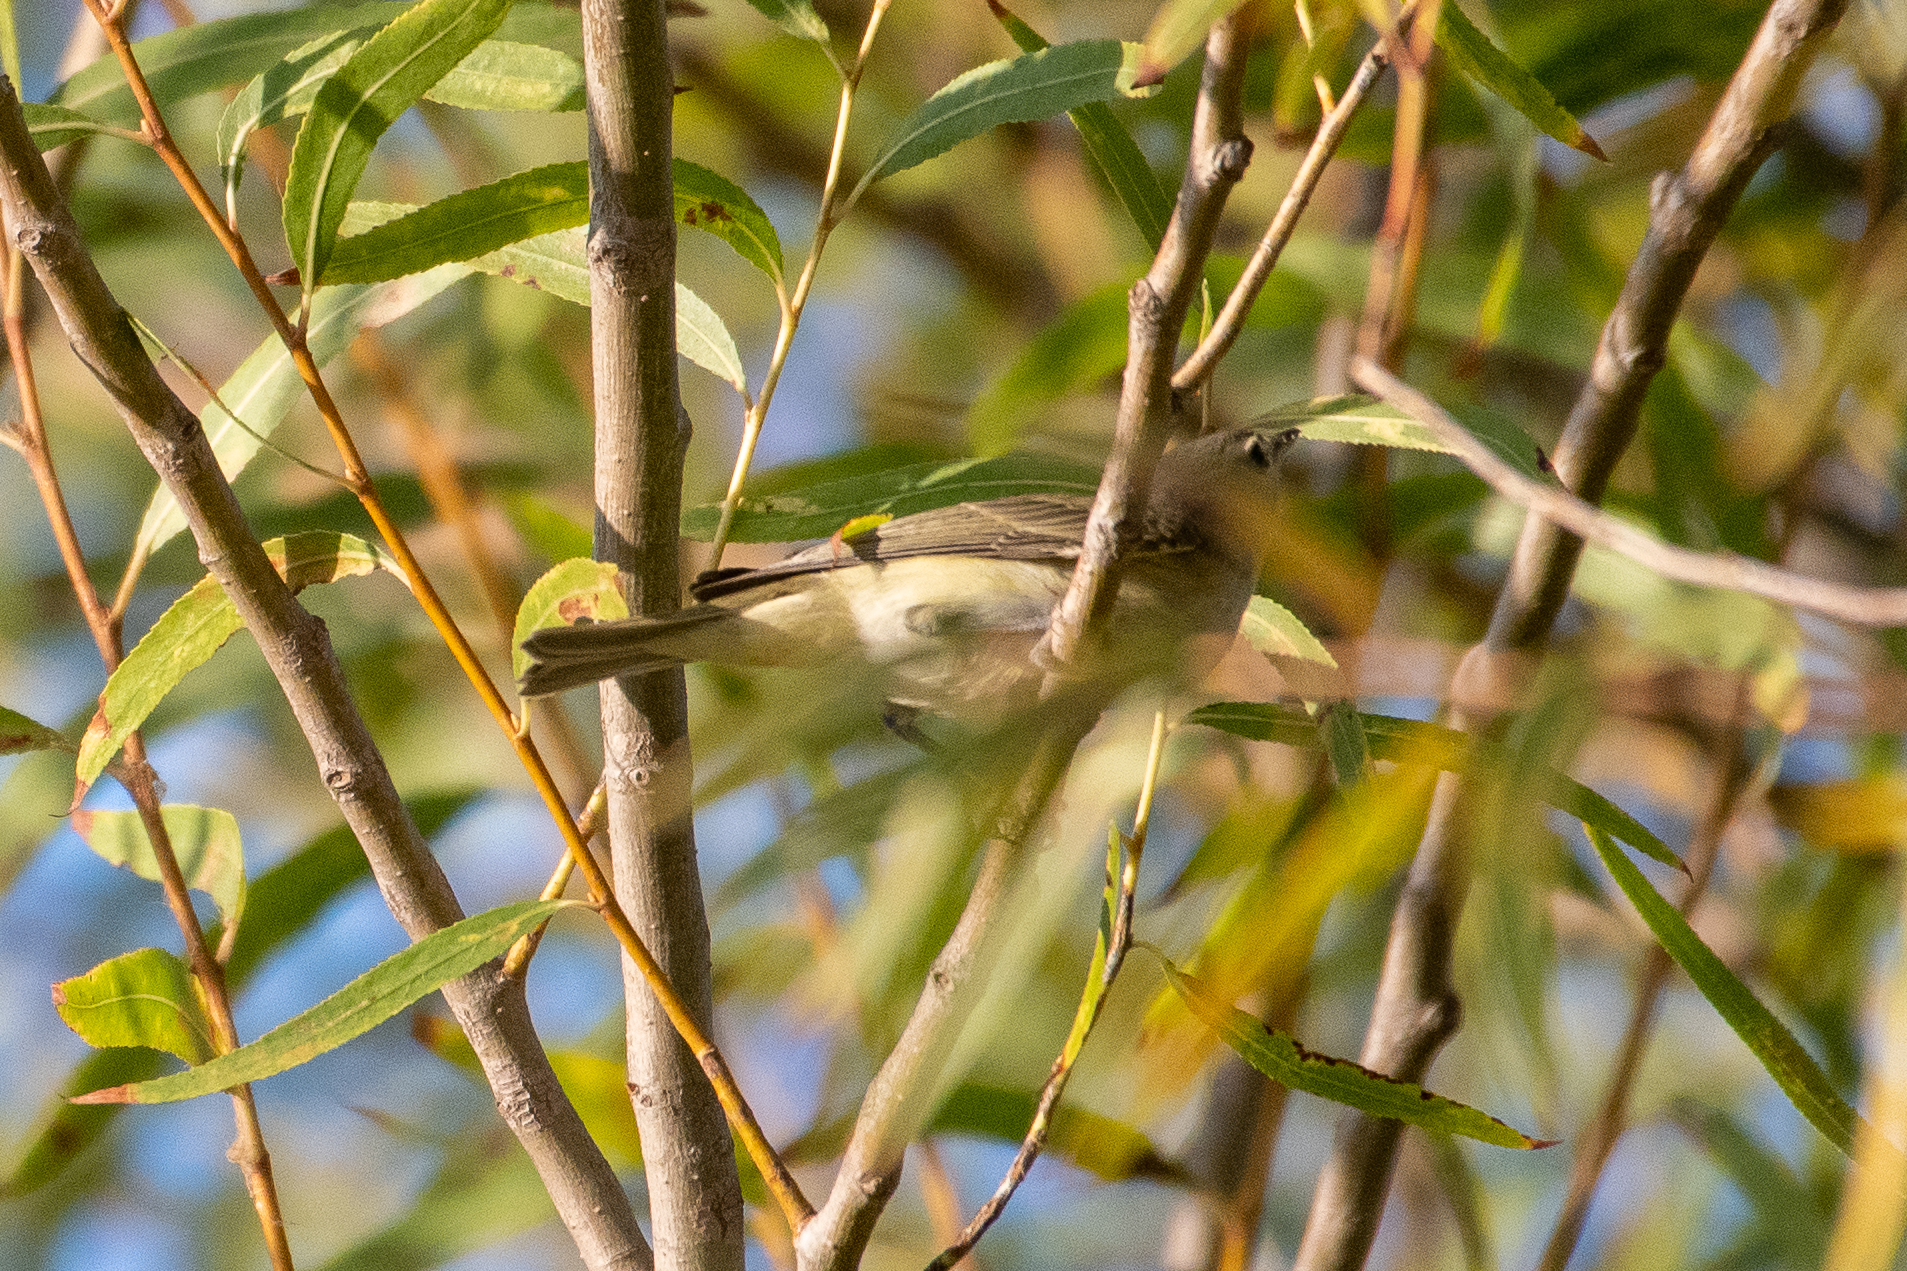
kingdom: Animalia
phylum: Chordata
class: Aves
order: Passeriformes
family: Vireonidae
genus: Vireo
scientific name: Vireo gilvus
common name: Warbling vireo
